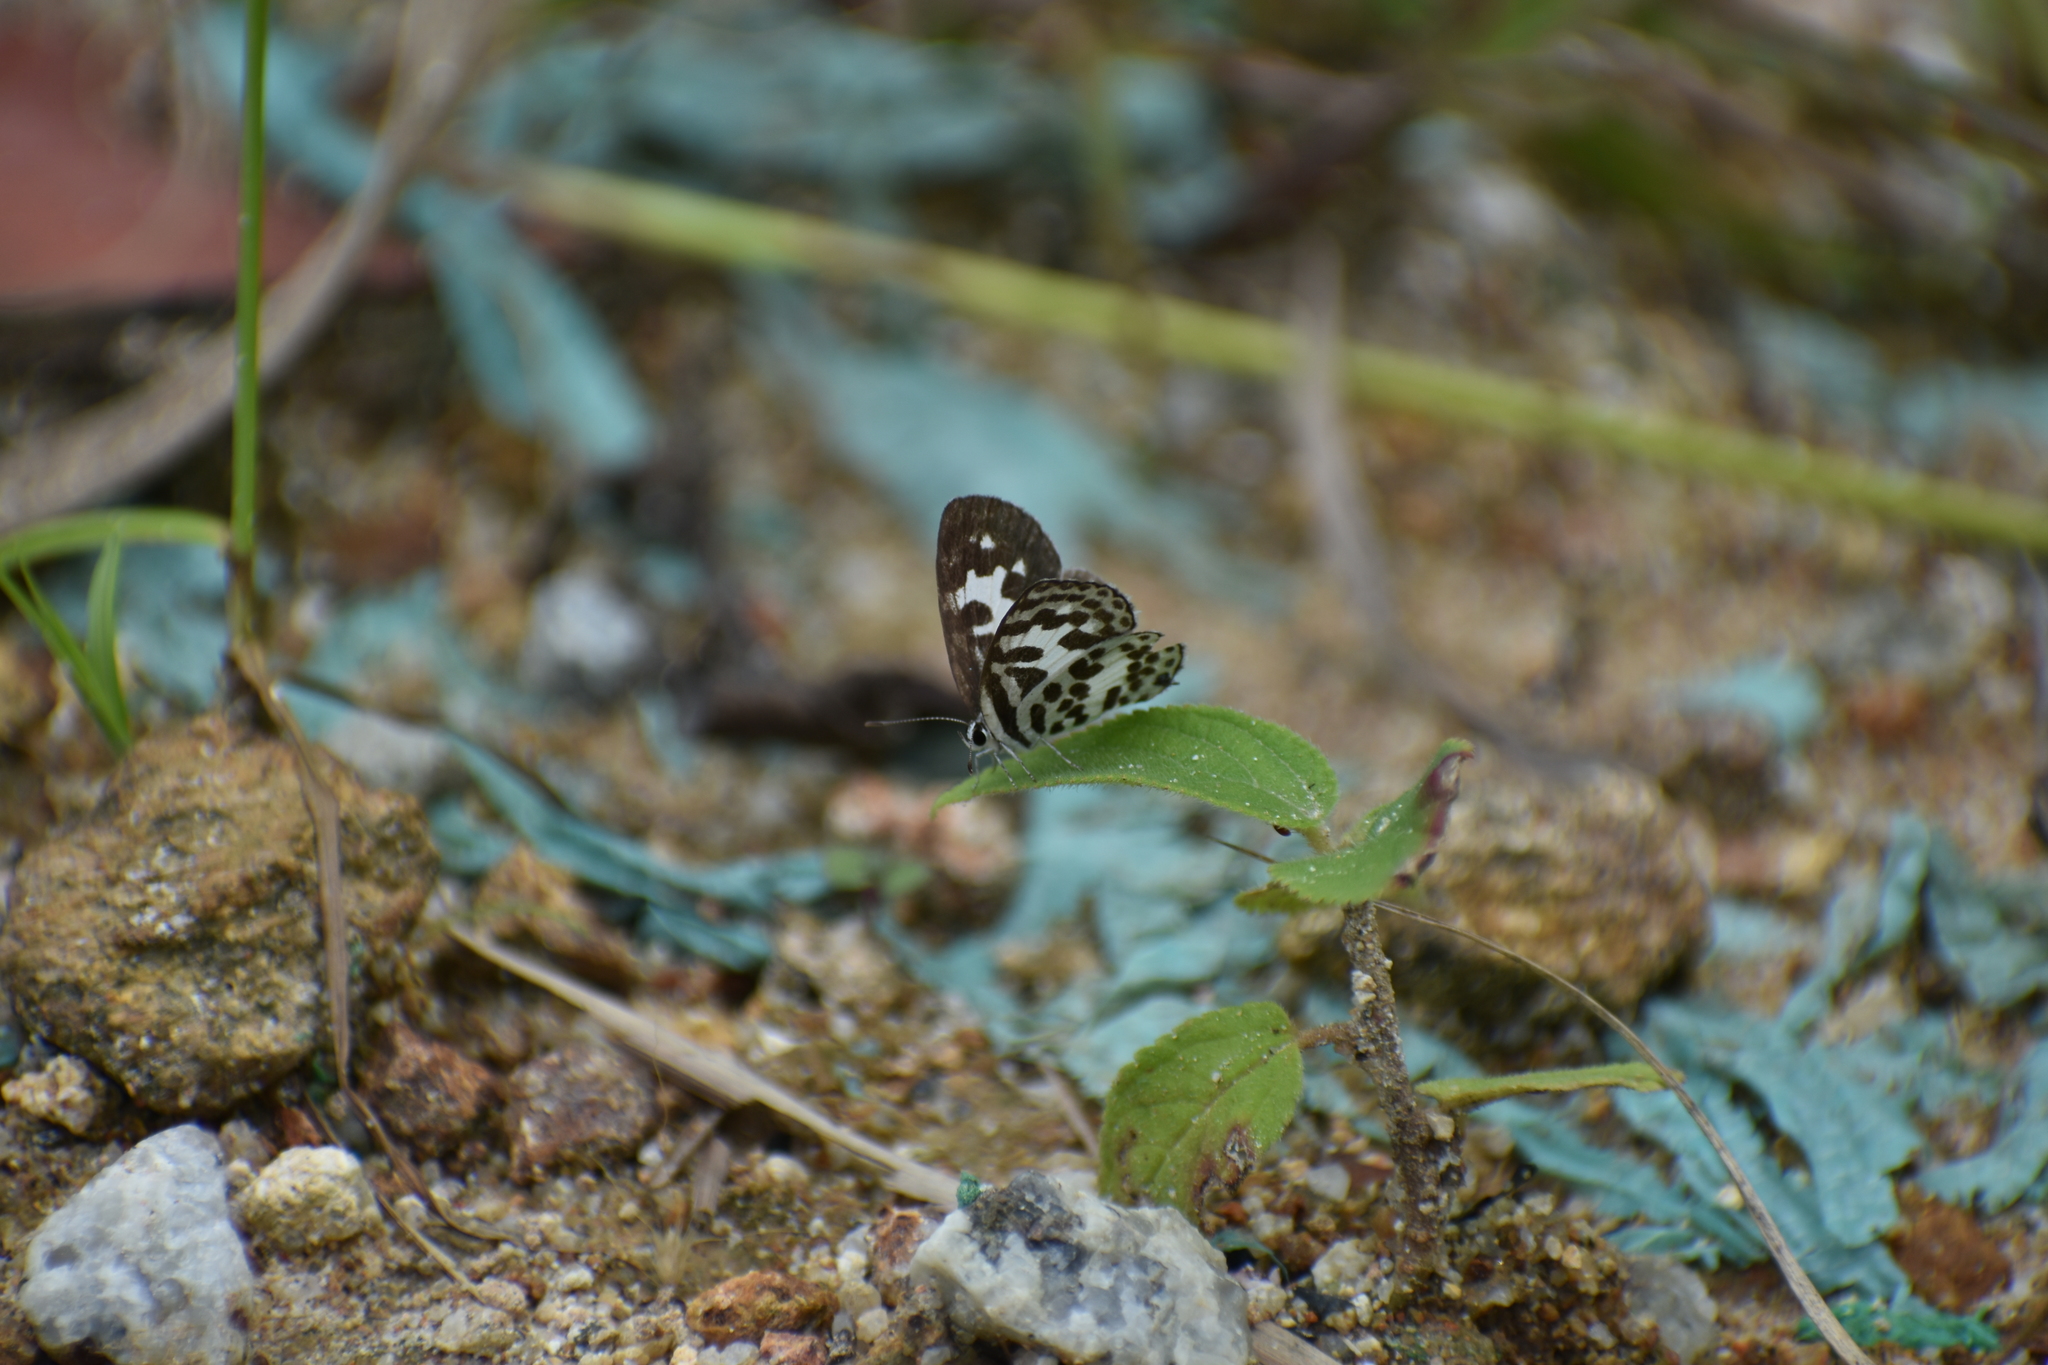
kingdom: Animalia
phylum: Arthropoda
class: Insecta
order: Lepidoptera
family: Lycaenidae
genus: Castalius
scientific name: Castalius rosimon
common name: Common pierrot
